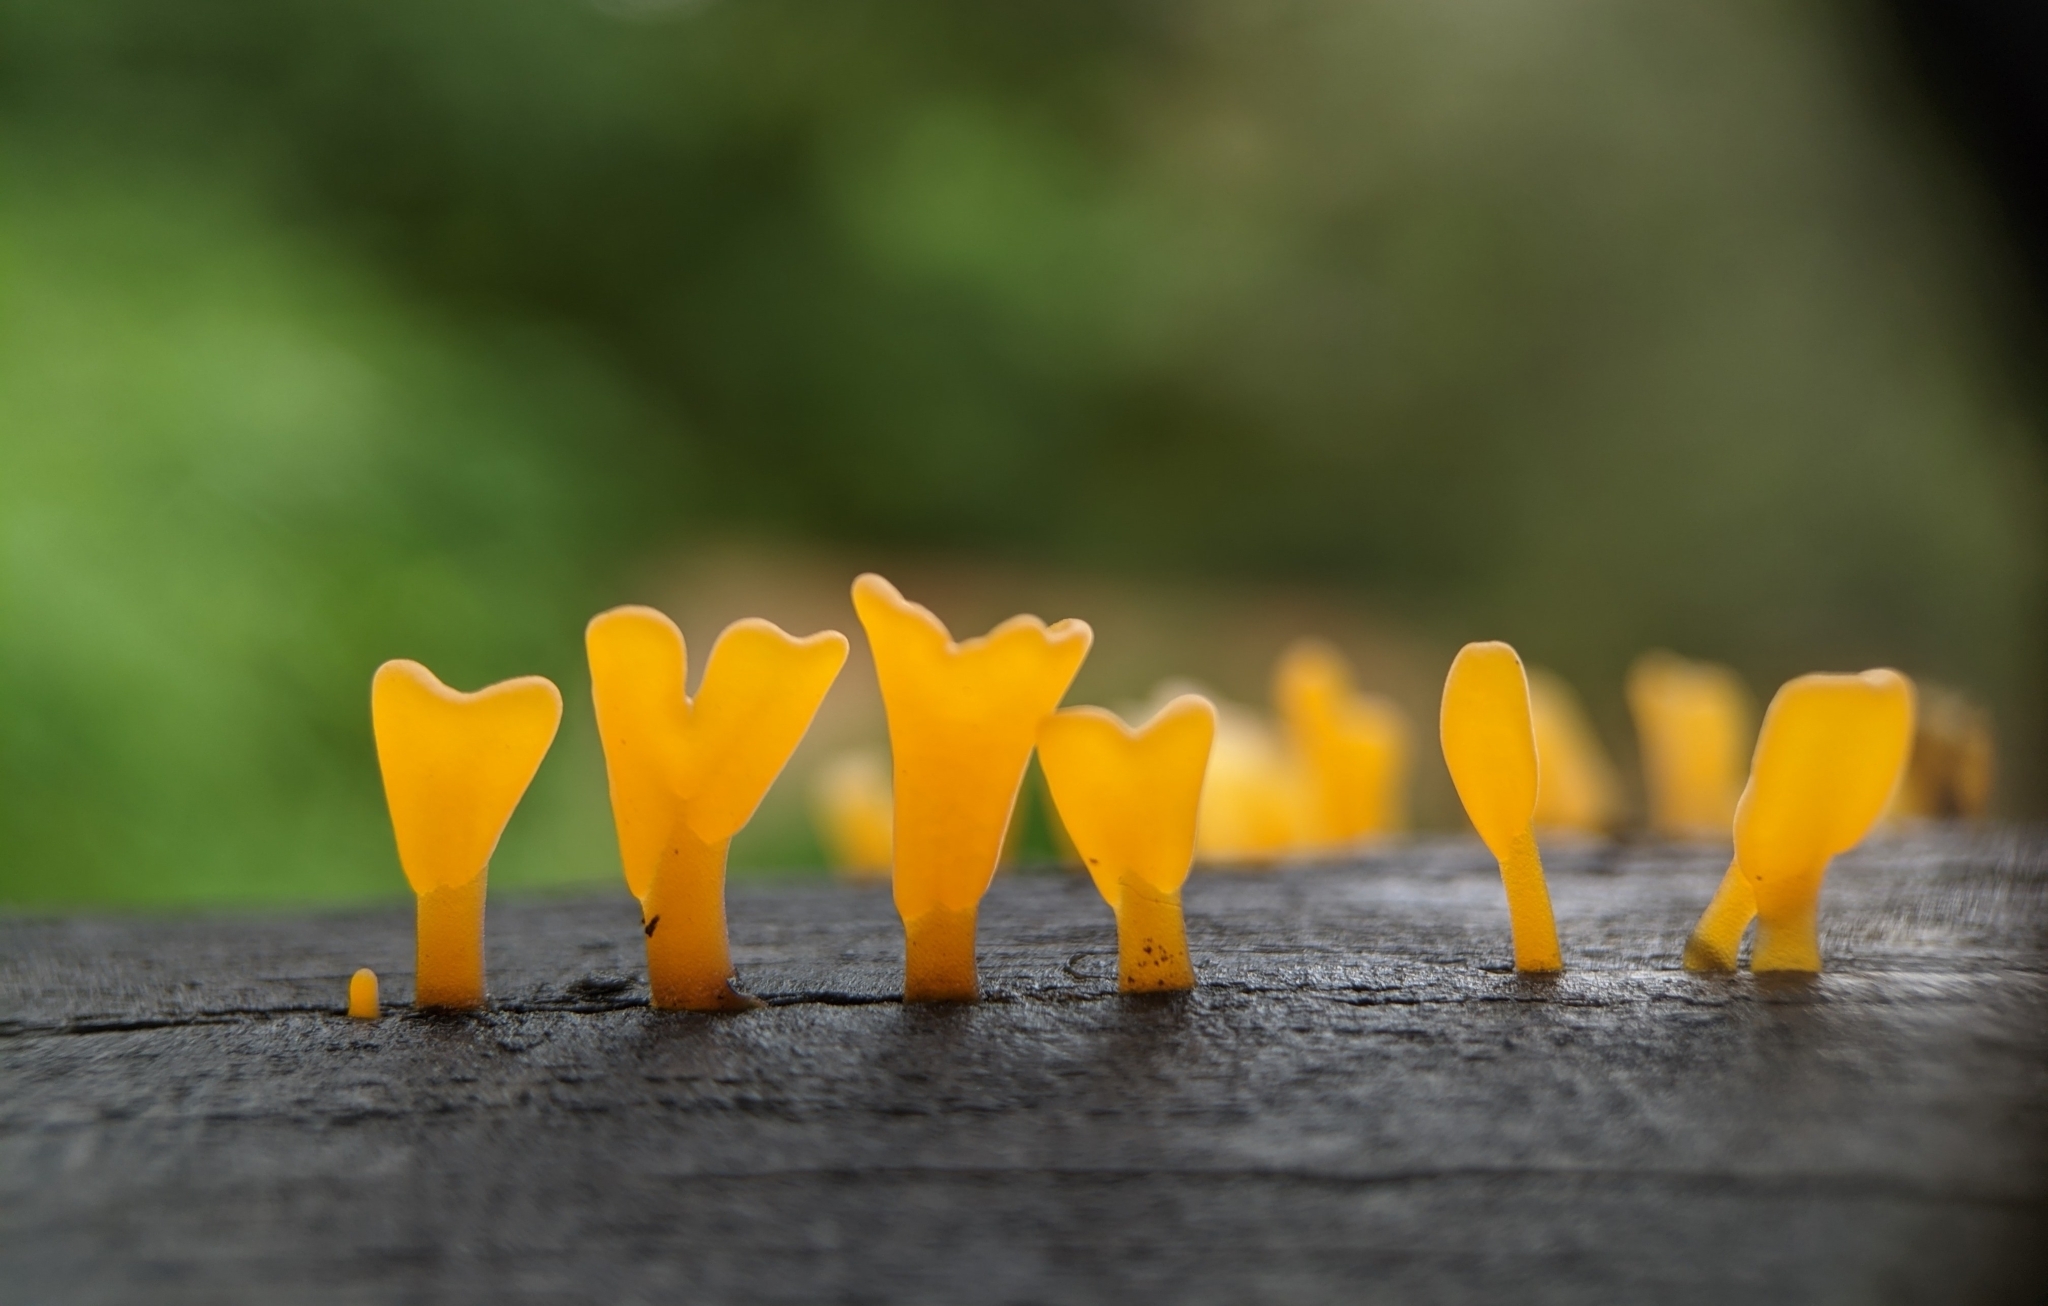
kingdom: Fungi
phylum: Basidiomycota
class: Dacrymycetes
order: Dacrymycetales
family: Dacrymycetaceae
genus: Dacrymyces
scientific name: Dacrymyces spathularius
